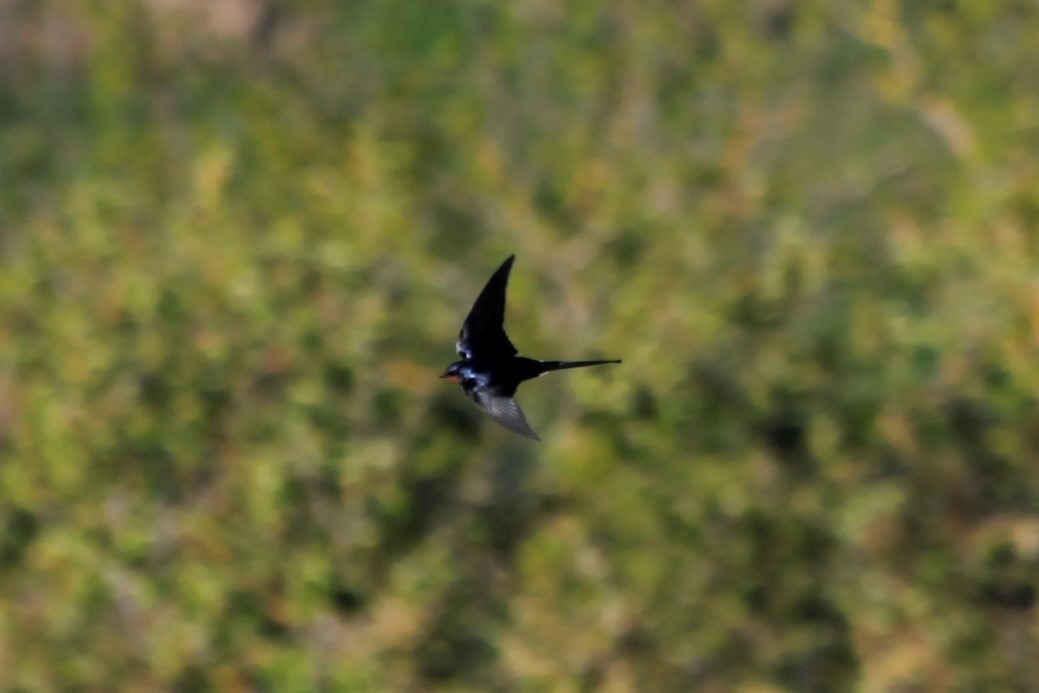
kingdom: Animalia
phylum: Chordata
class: Aves
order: Passeriformes
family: Hirundinidae
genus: Hirundo
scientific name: Hirundo rustica
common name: Barn swallow
